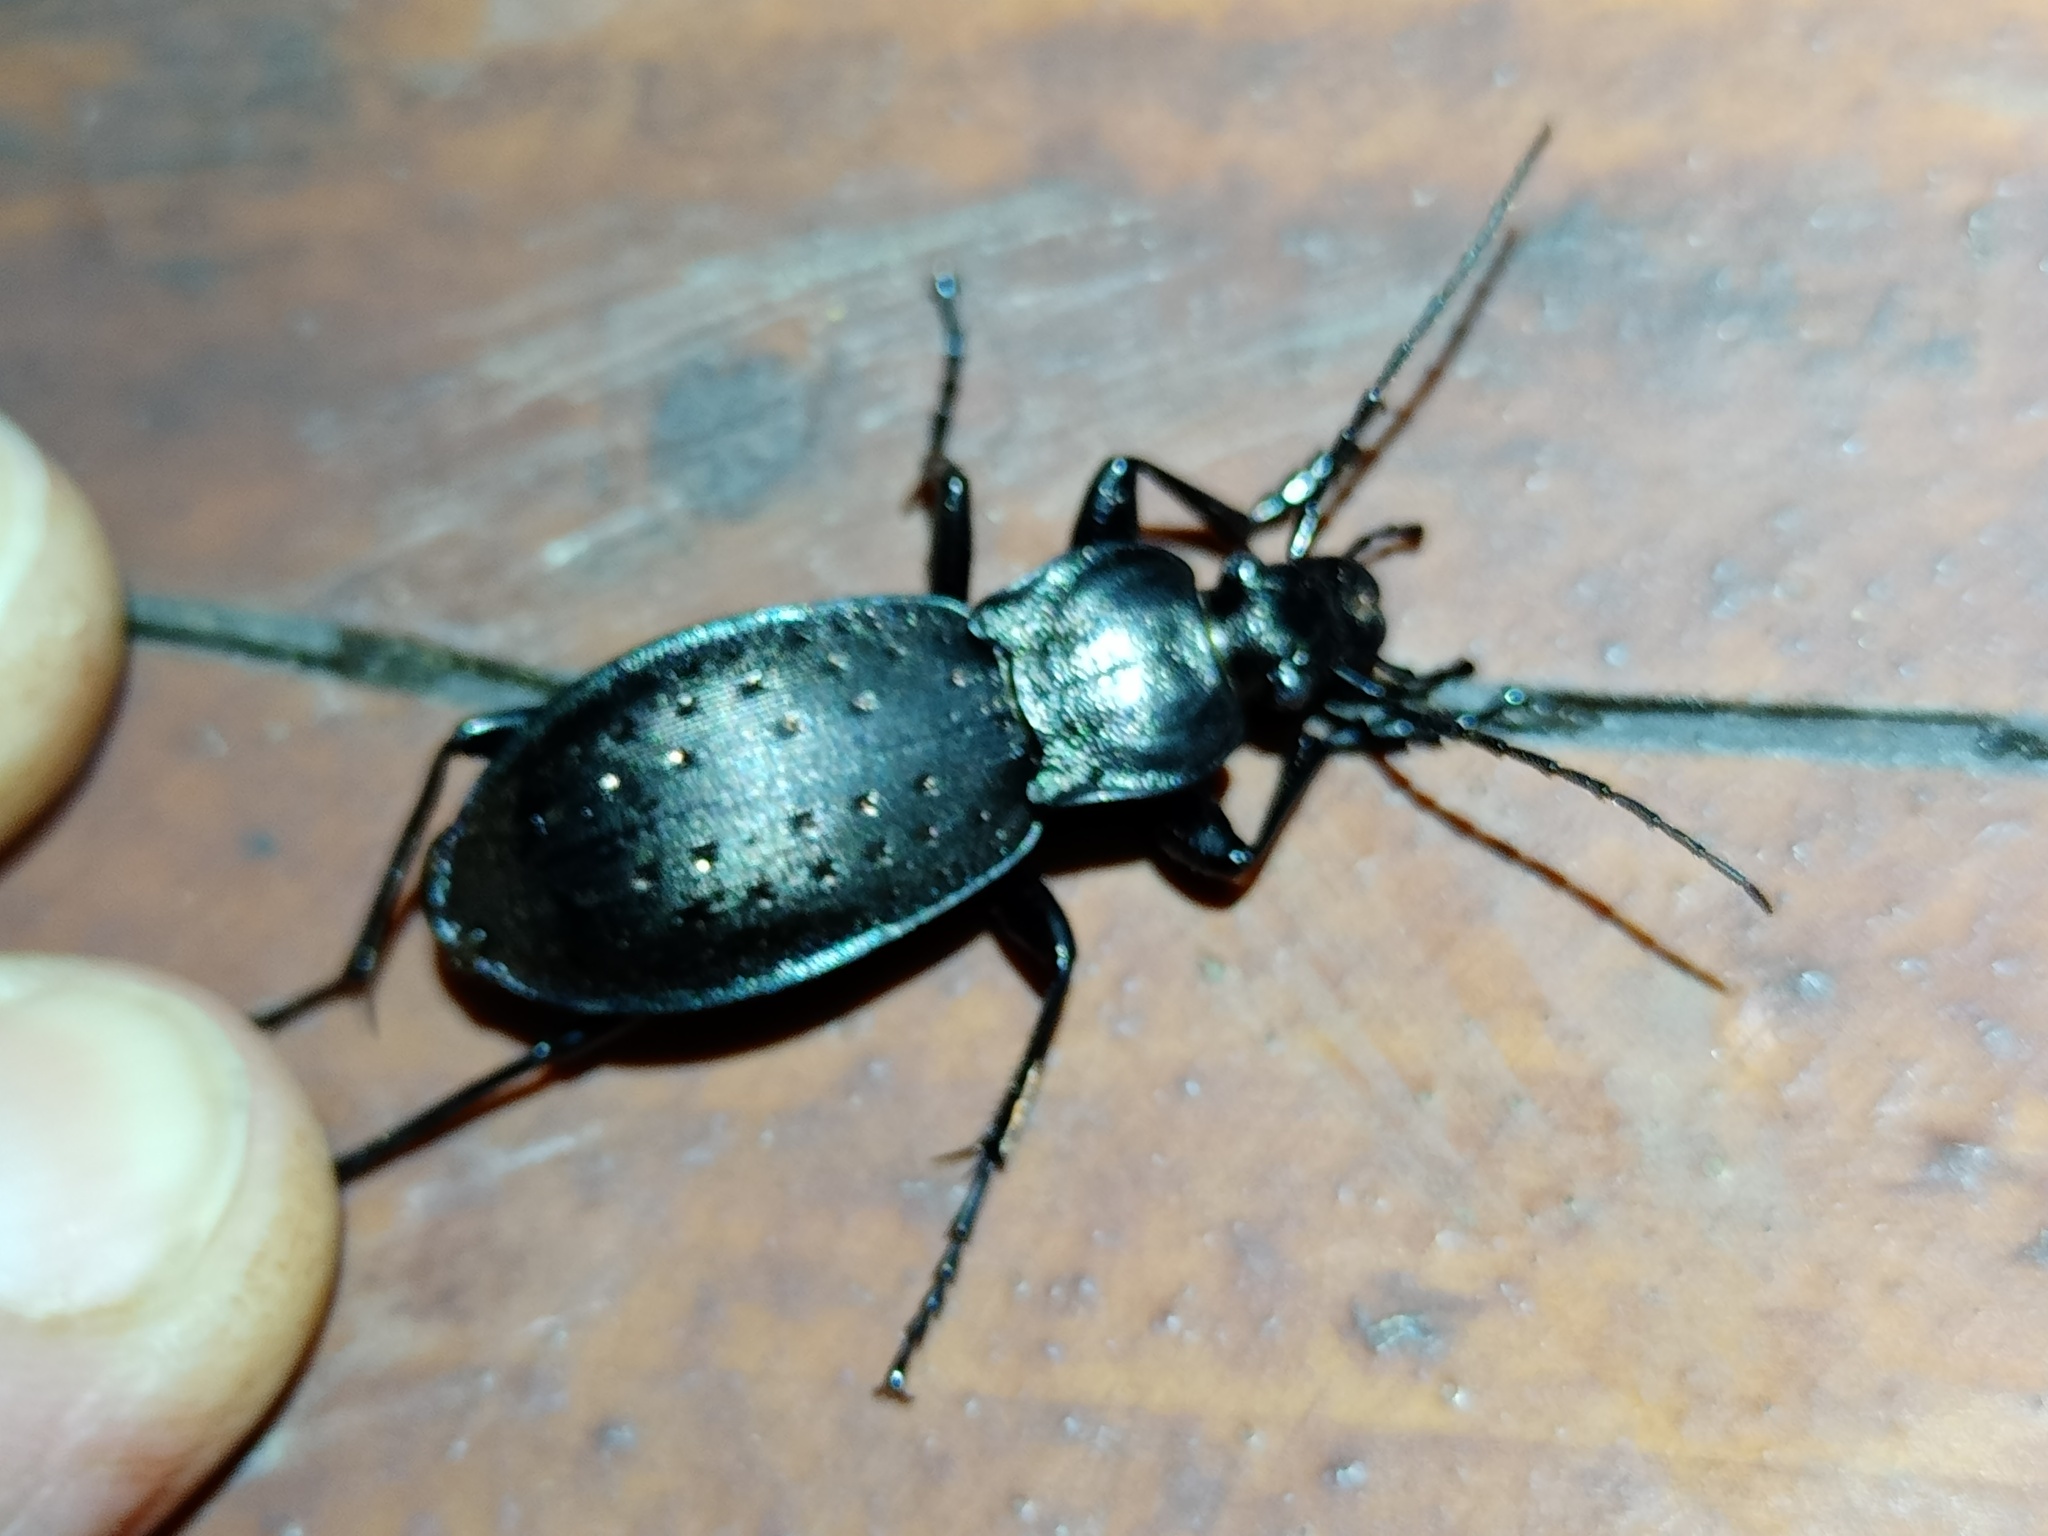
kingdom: Animalia
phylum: Arthropoda
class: Insecta
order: Coleoptera
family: Carabidae
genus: Carabus
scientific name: Carabus hortensis
